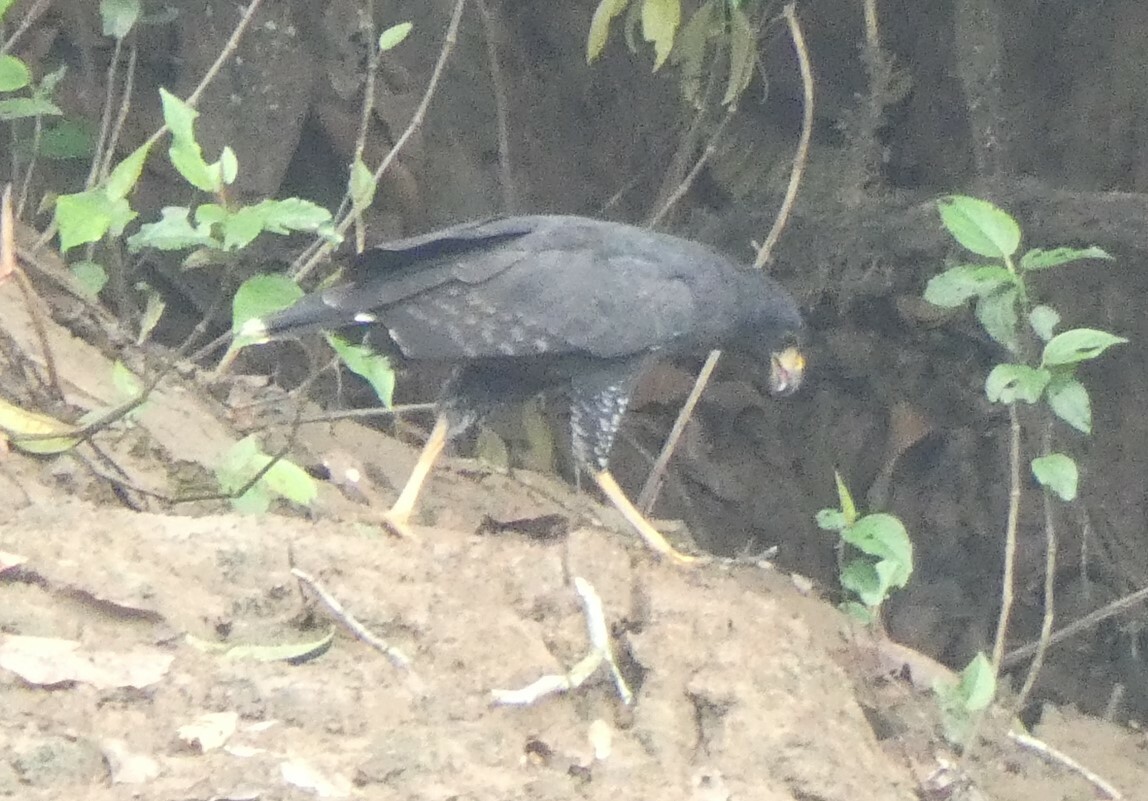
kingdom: Animalia
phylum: Chordata
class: Aves
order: Accipitriformes
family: Accipitridae
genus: Buteogallus
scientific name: Buteogallus urubitinga
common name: Great black hawk
